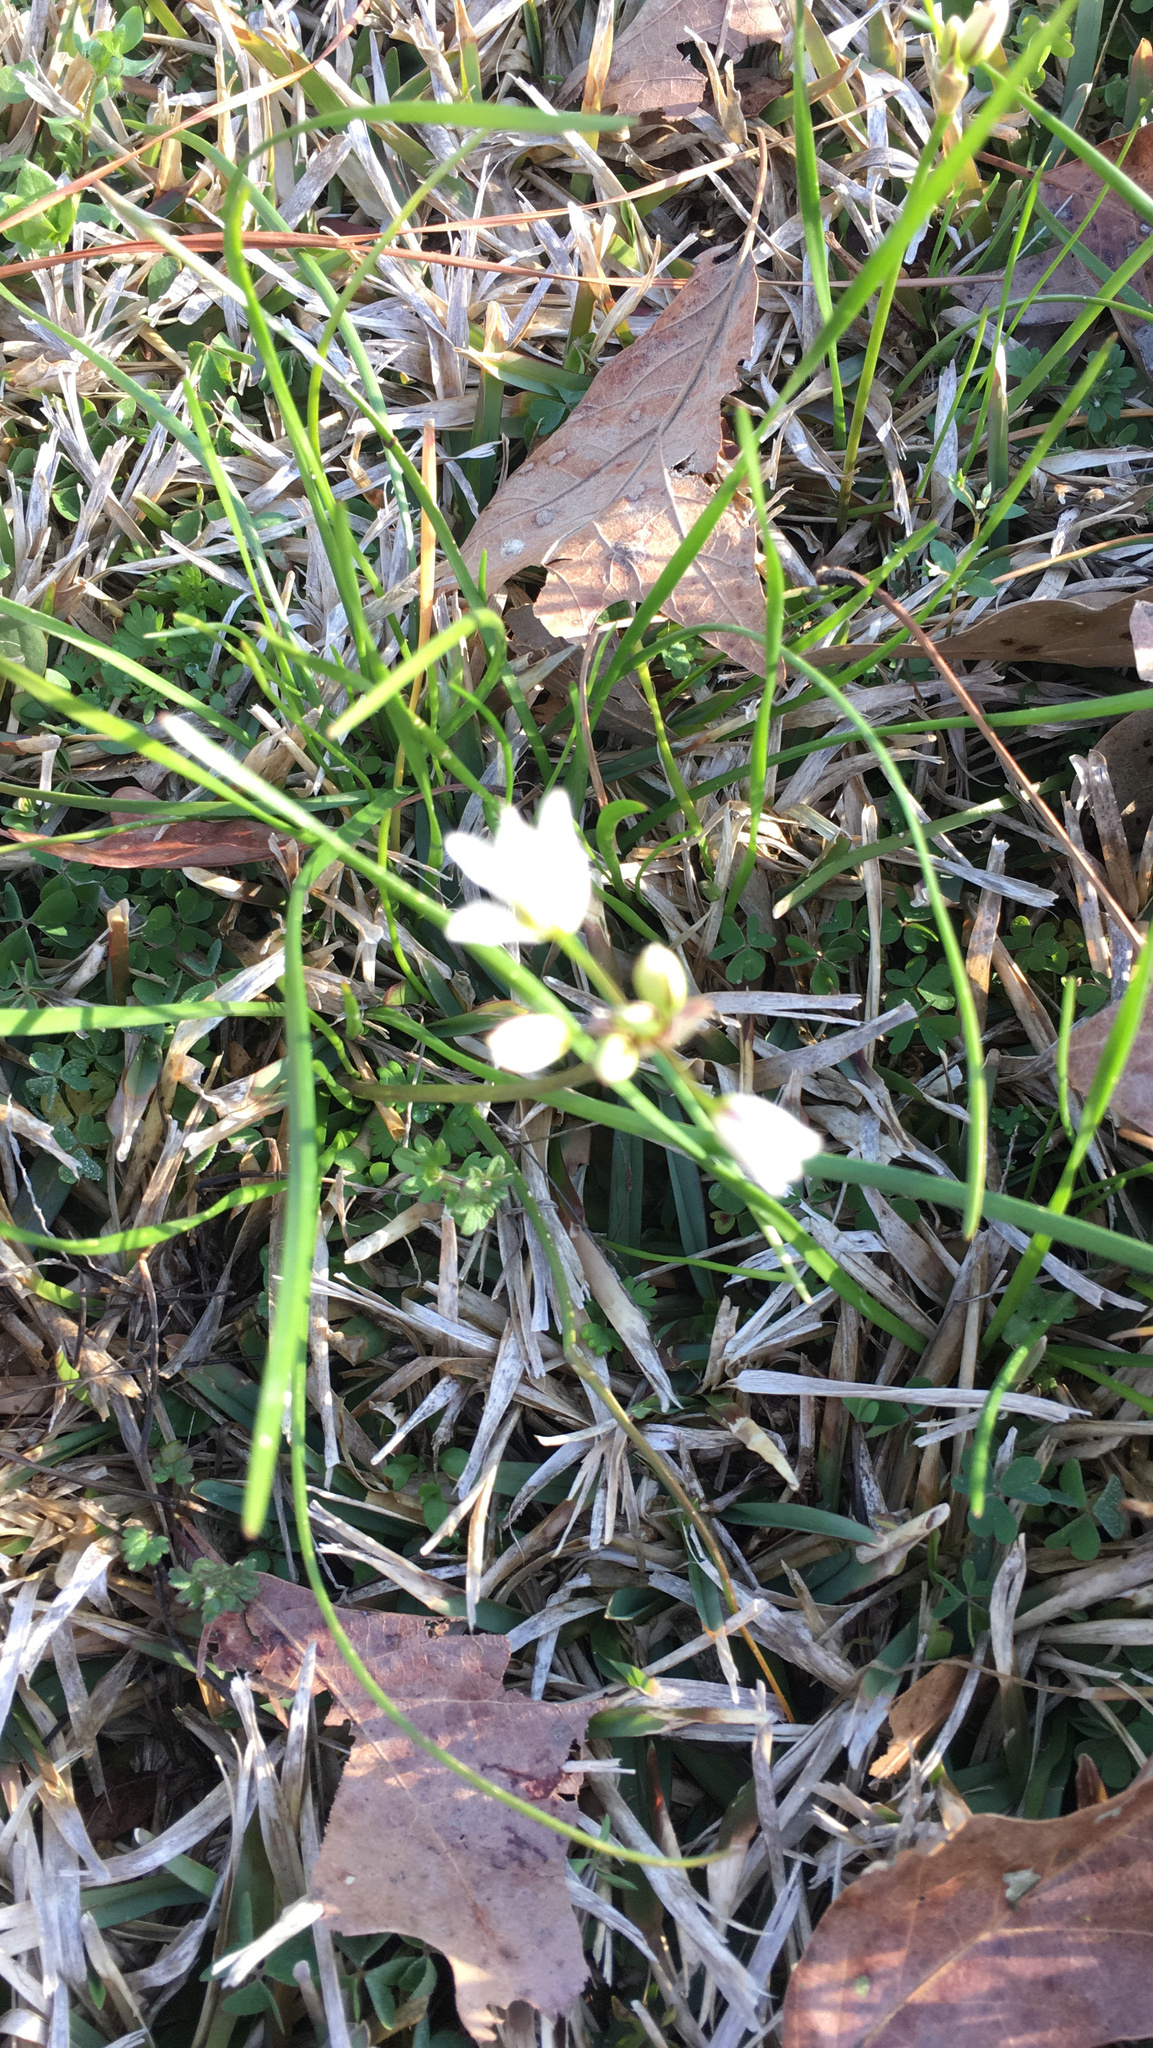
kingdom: Plantae
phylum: Tracheophyta
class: Liliopsida
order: Asparagales
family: Amaryllidaceae
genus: Nothoscordum
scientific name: Nothoscordum bivalve
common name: Crow-poison
